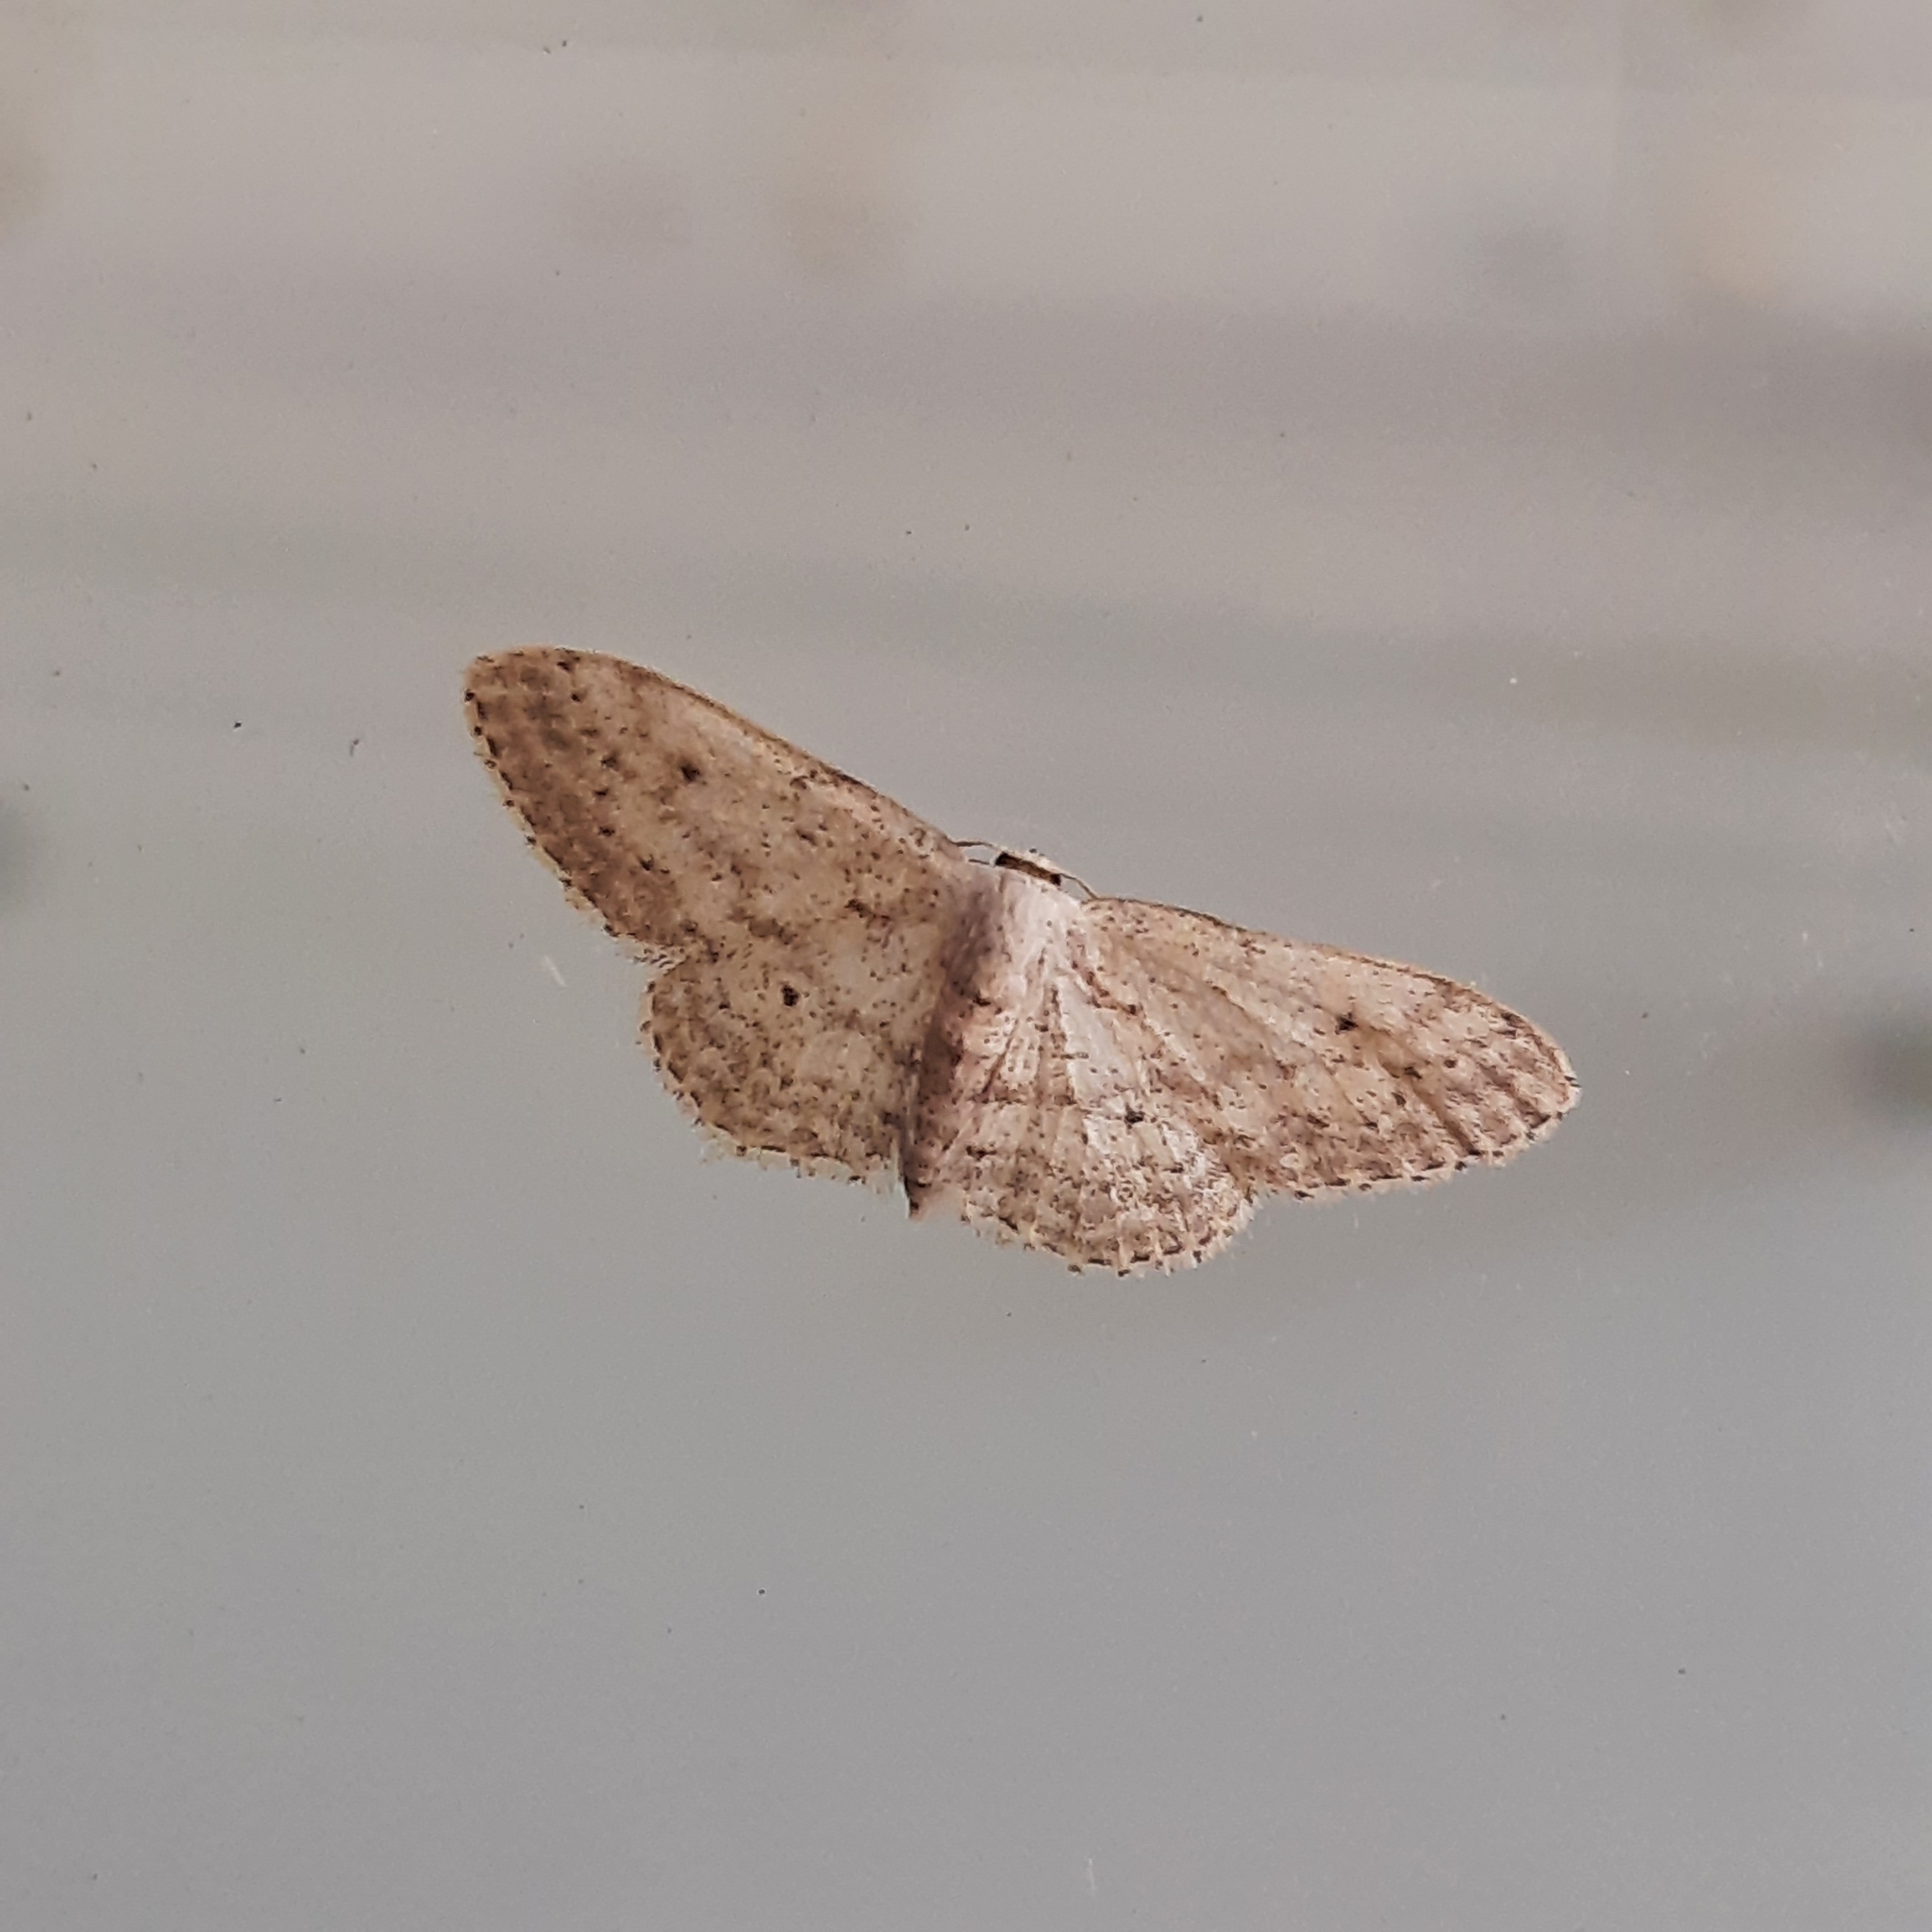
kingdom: Animalia
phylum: Arthropoda
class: Insecta
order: Lepidoptera
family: Geometridae
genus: Idaea
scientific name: Idaea seriata
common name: Small dusty wave
